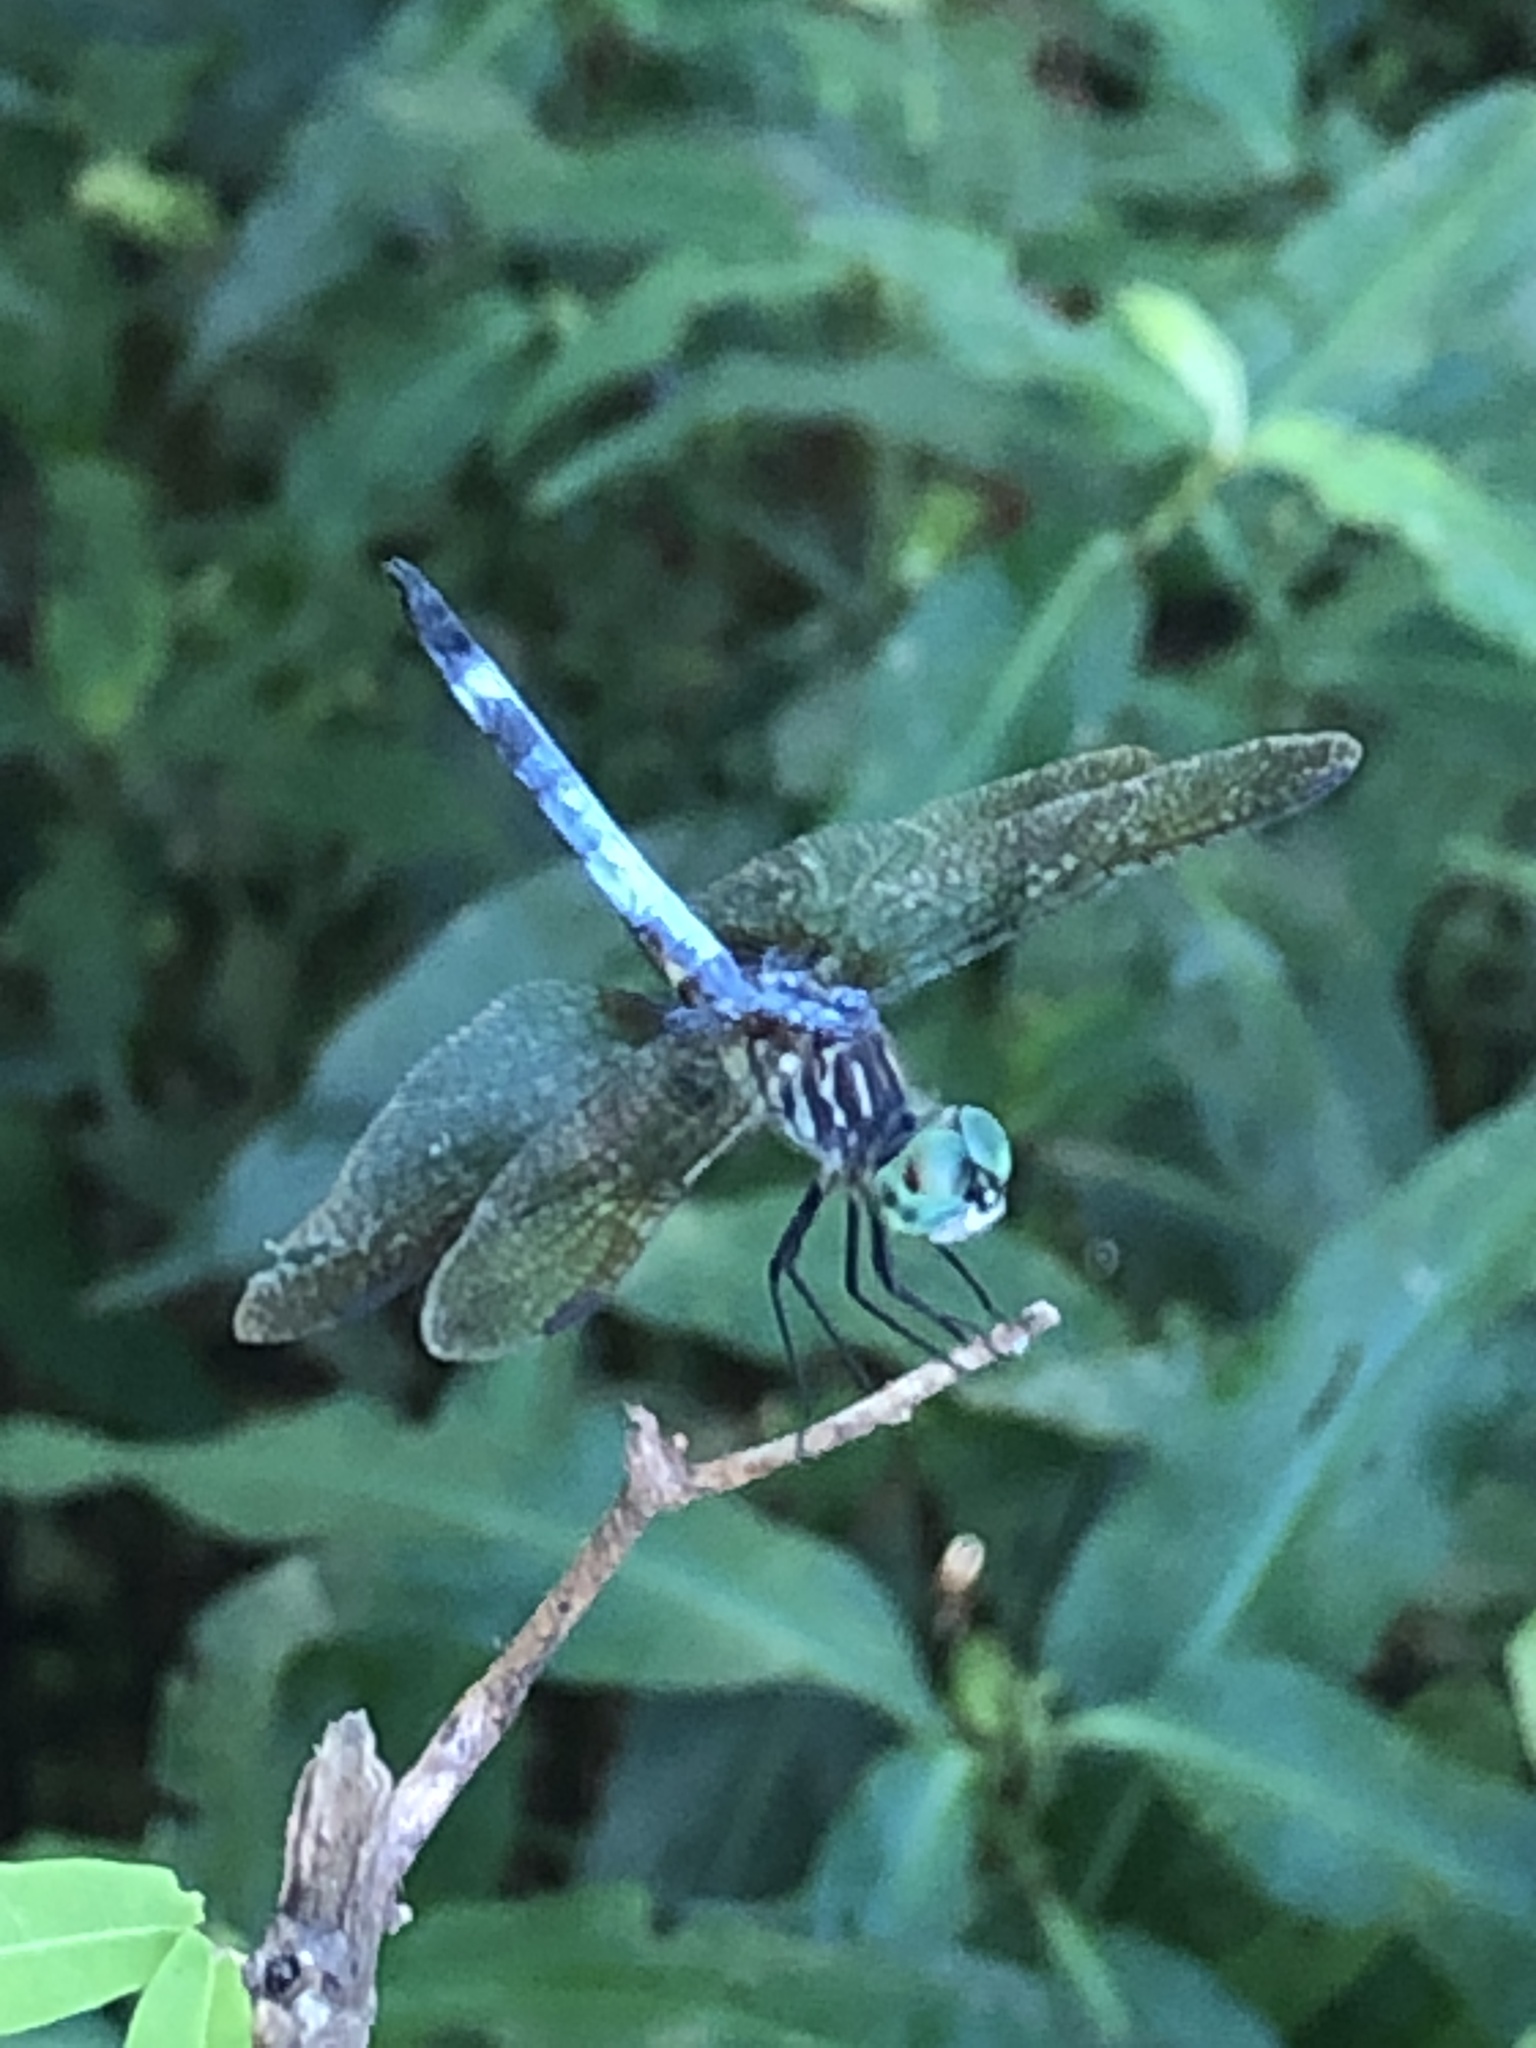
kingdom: Animalia
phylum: Arthropoda
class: Insecta
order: Odonata
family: Libellulidae
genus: Pachydiplax
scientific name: Pachydiplax longipennis
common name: Blue dasher
